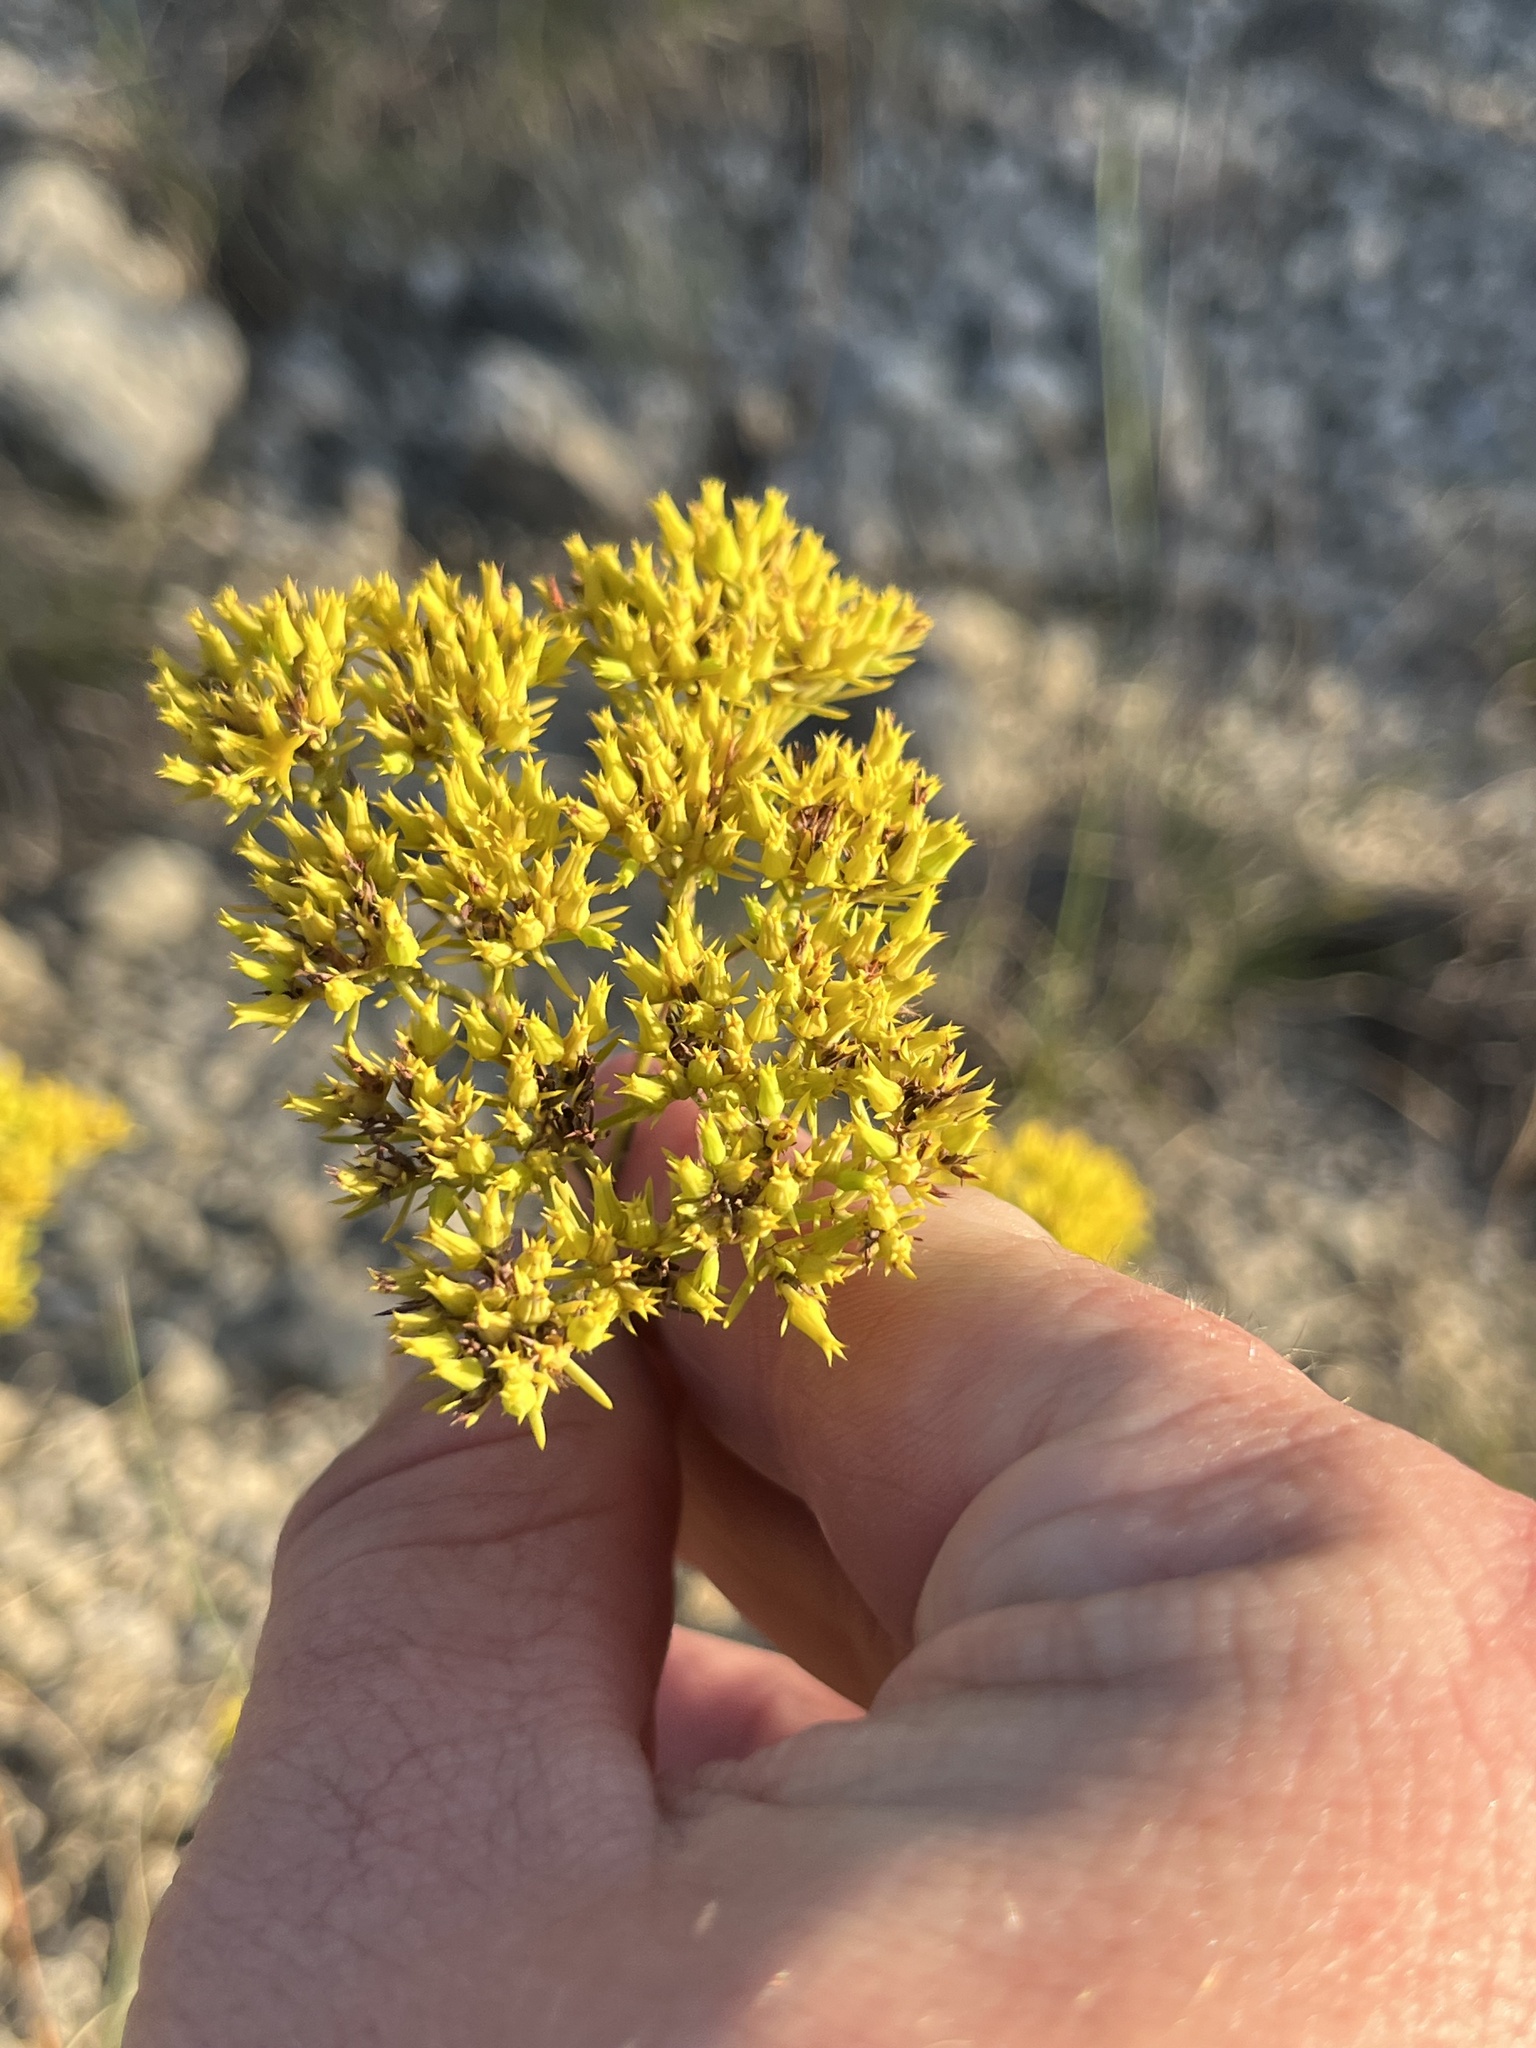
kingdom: Plantae
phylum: Tracheophyta
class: Magnoliopsida
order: Caryophyllales
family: Caryophyllaceae
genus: Paronychia
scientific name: Paronychia virginica
